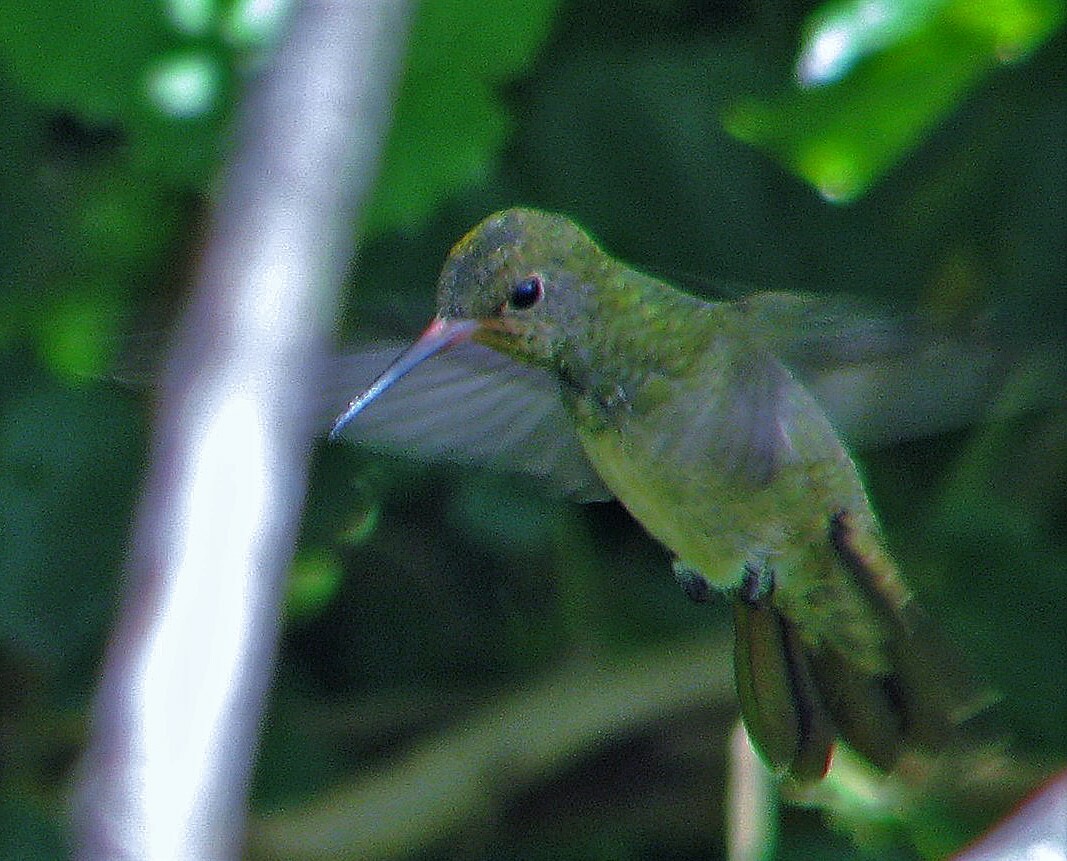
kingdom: Animalia
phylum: Chordata
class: Aves
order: Apodiformes
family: Trochilidae
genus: Hylocharis
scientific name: Hylocharis chrysura
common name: Gilded sapphire
